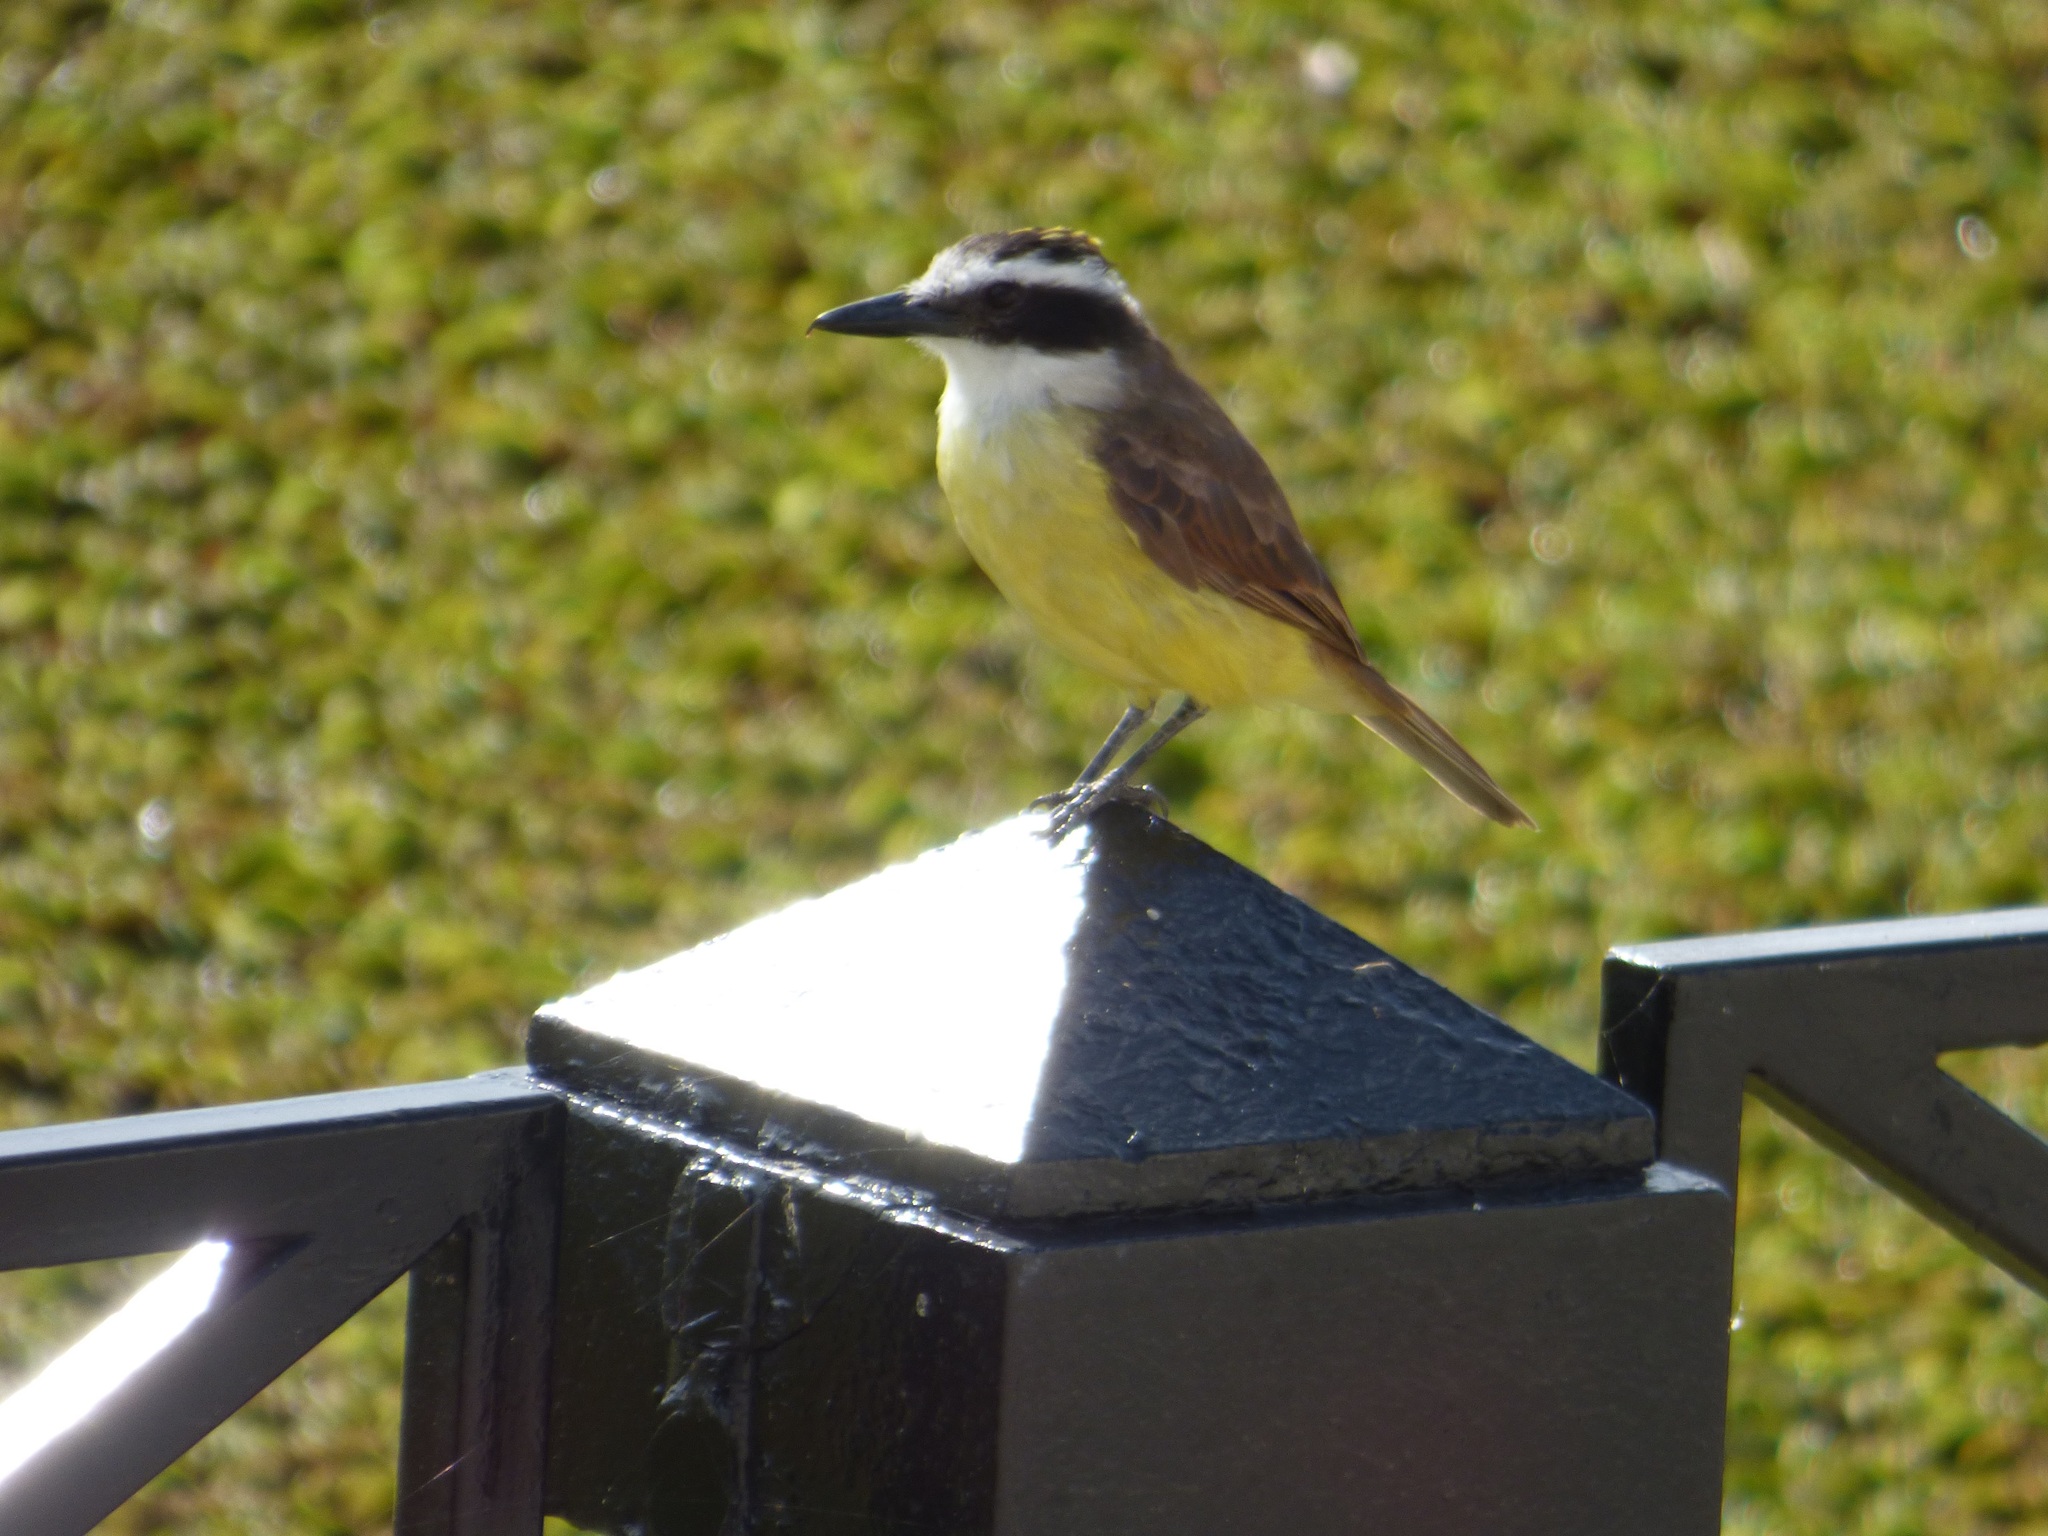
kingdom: Animalia
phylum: Chordata
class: Aves
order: Passeriformes
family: Tyrannidae
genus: Pitangus
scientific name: Pitangus sulphuratus
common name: Great kiskadee
